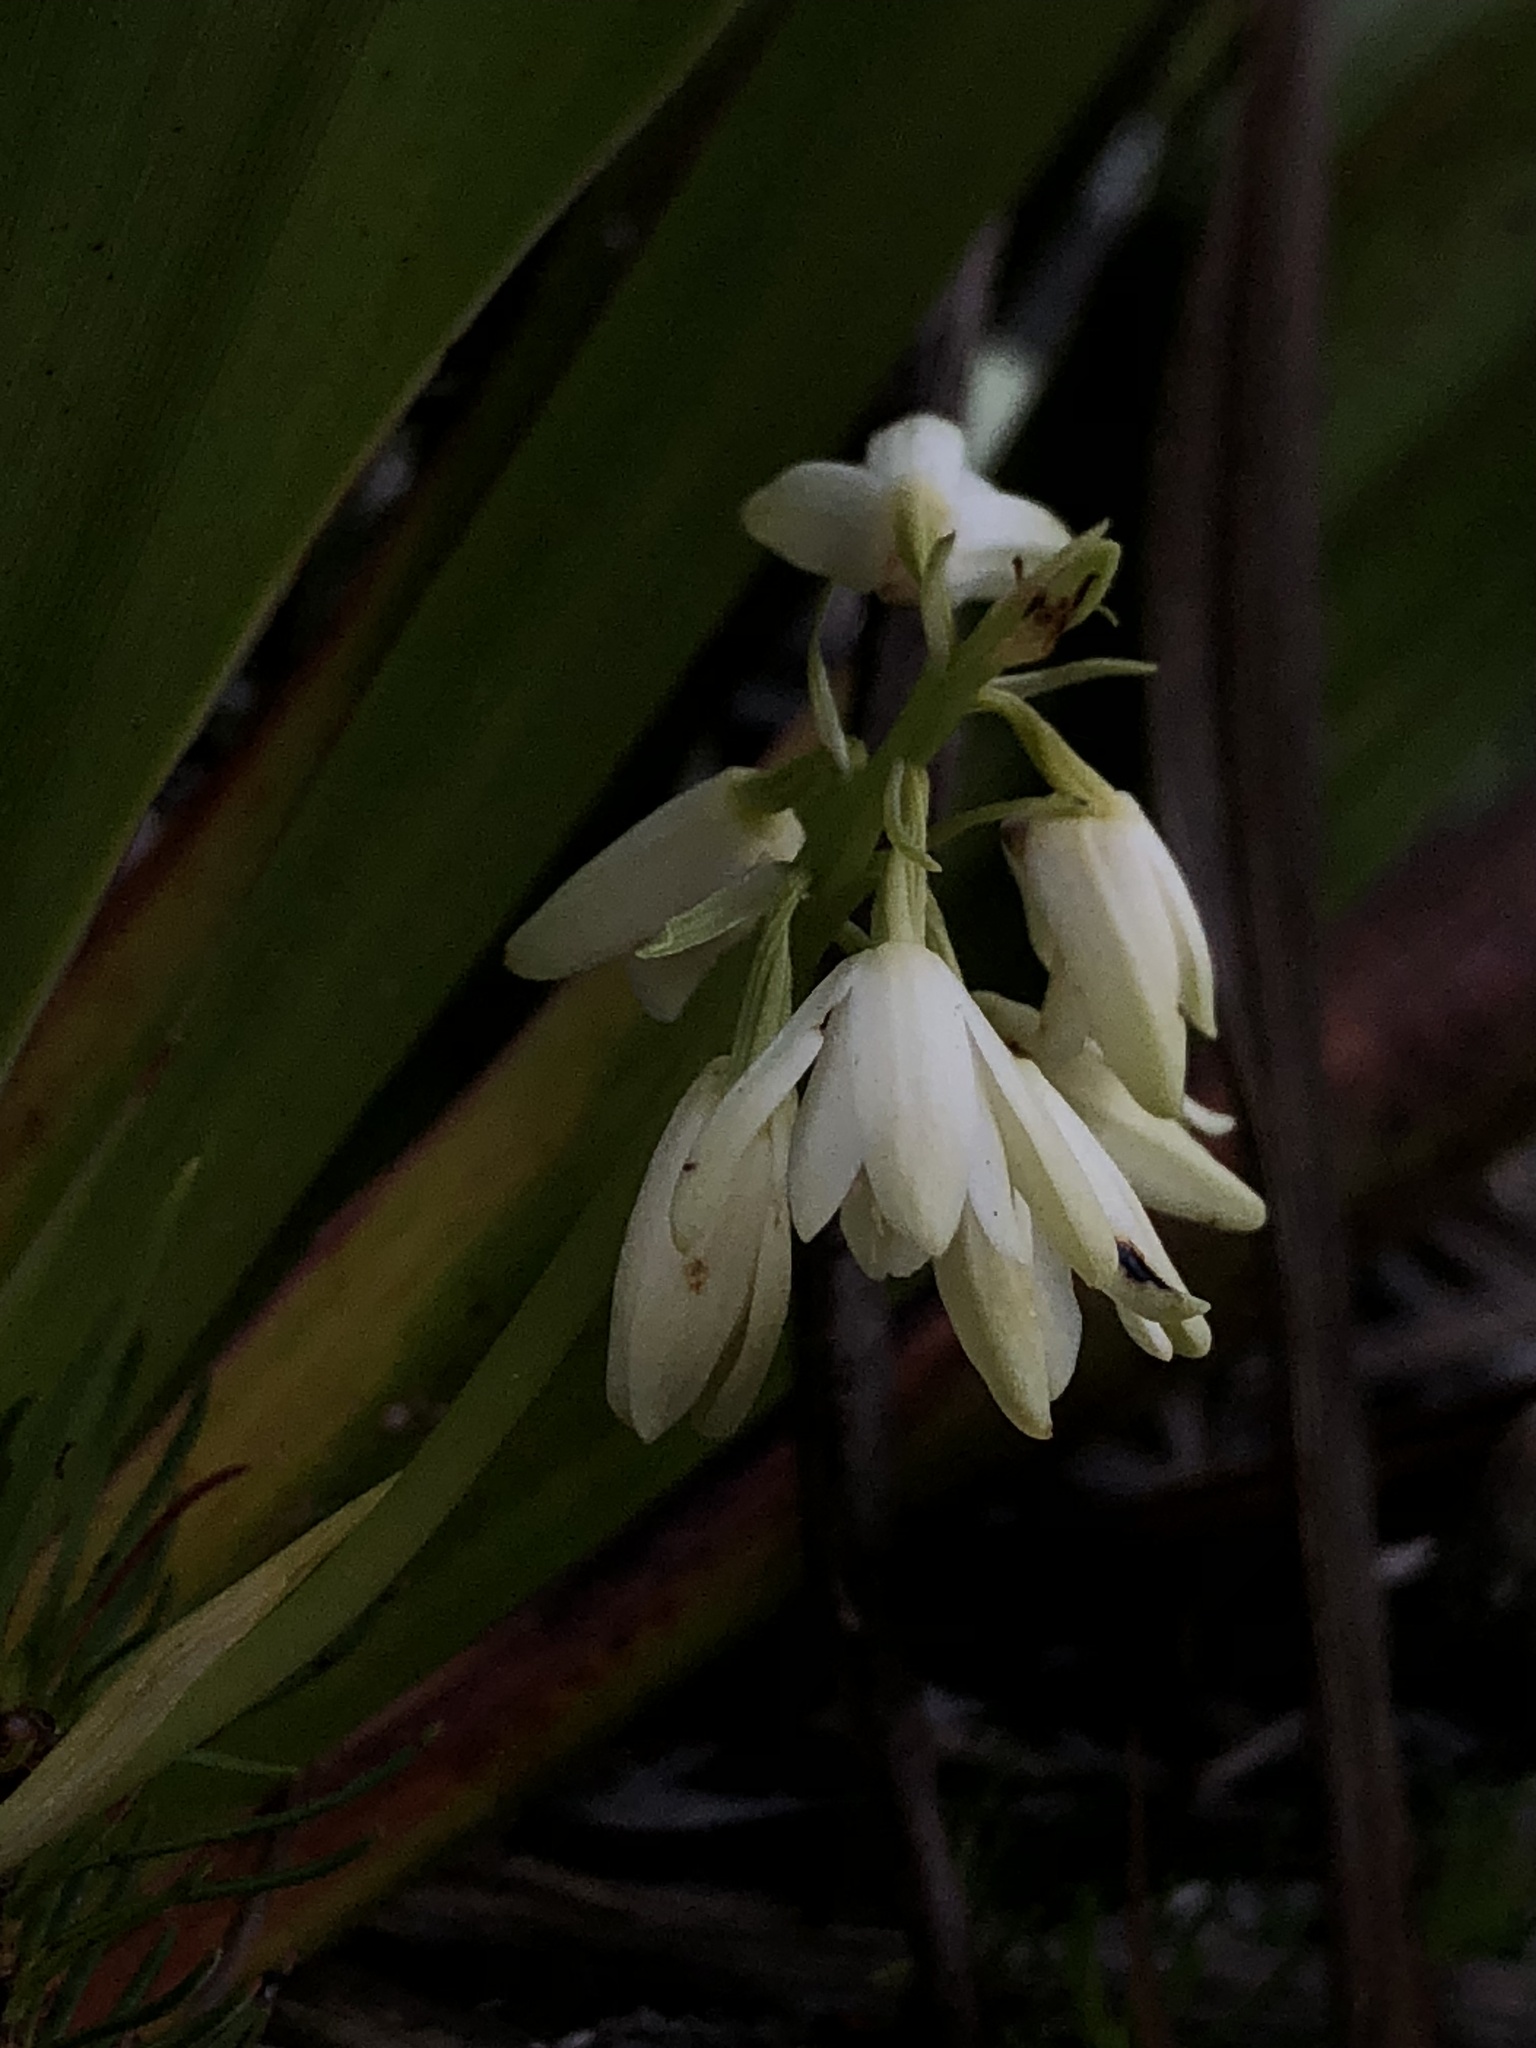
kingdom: Plantae
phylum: Tracheophyta
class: Liliopsida
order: Asparagales
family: Orchidaceae
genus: Eulophia
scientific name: Eulophia aculeata
